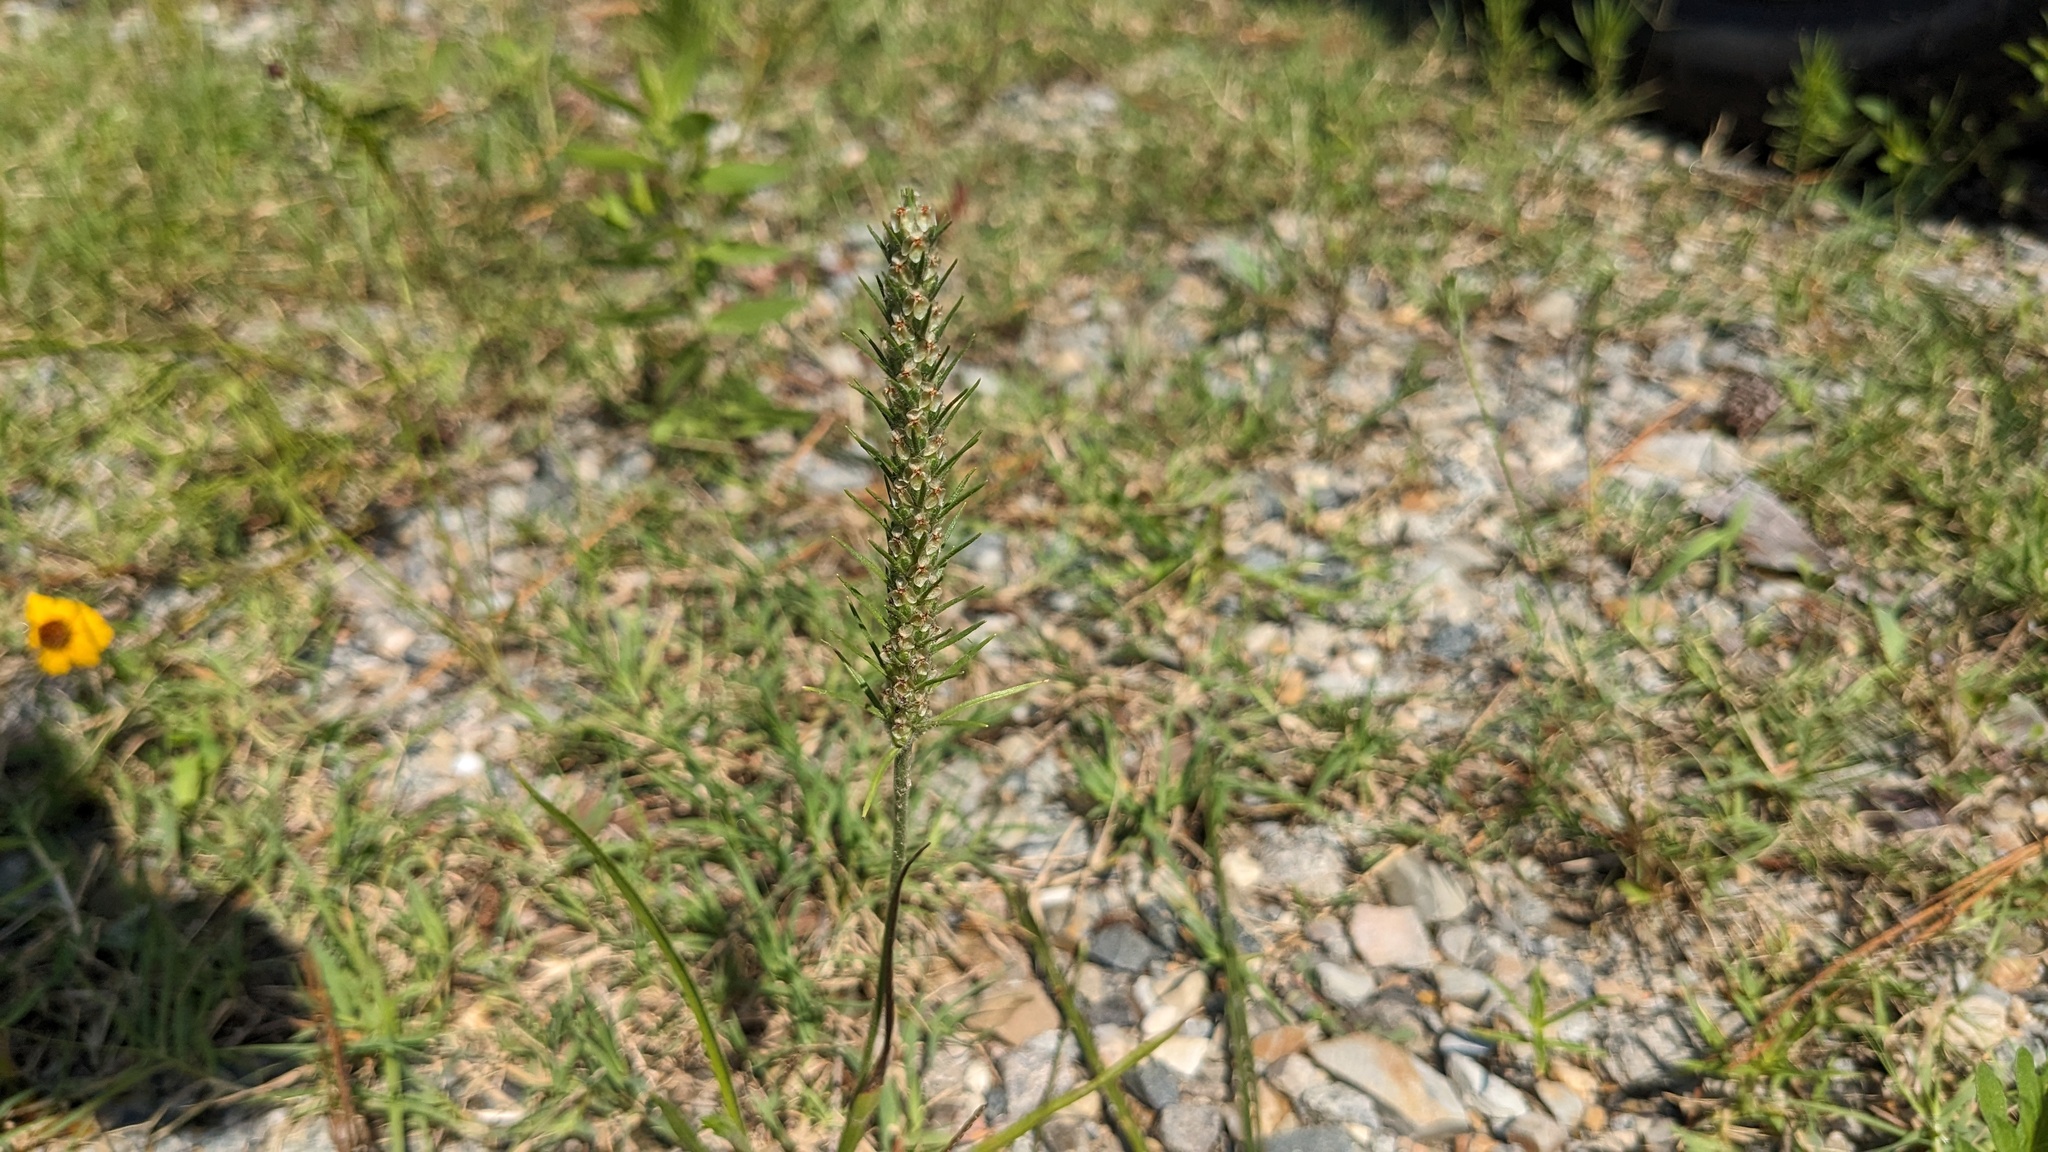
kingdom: Plantae
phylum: Tracheophyta
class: Magnoliopsida
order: Lamiales
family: Plantaginaceae
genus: Plantago
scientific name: Plantago aristata
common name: Bracted plantain
